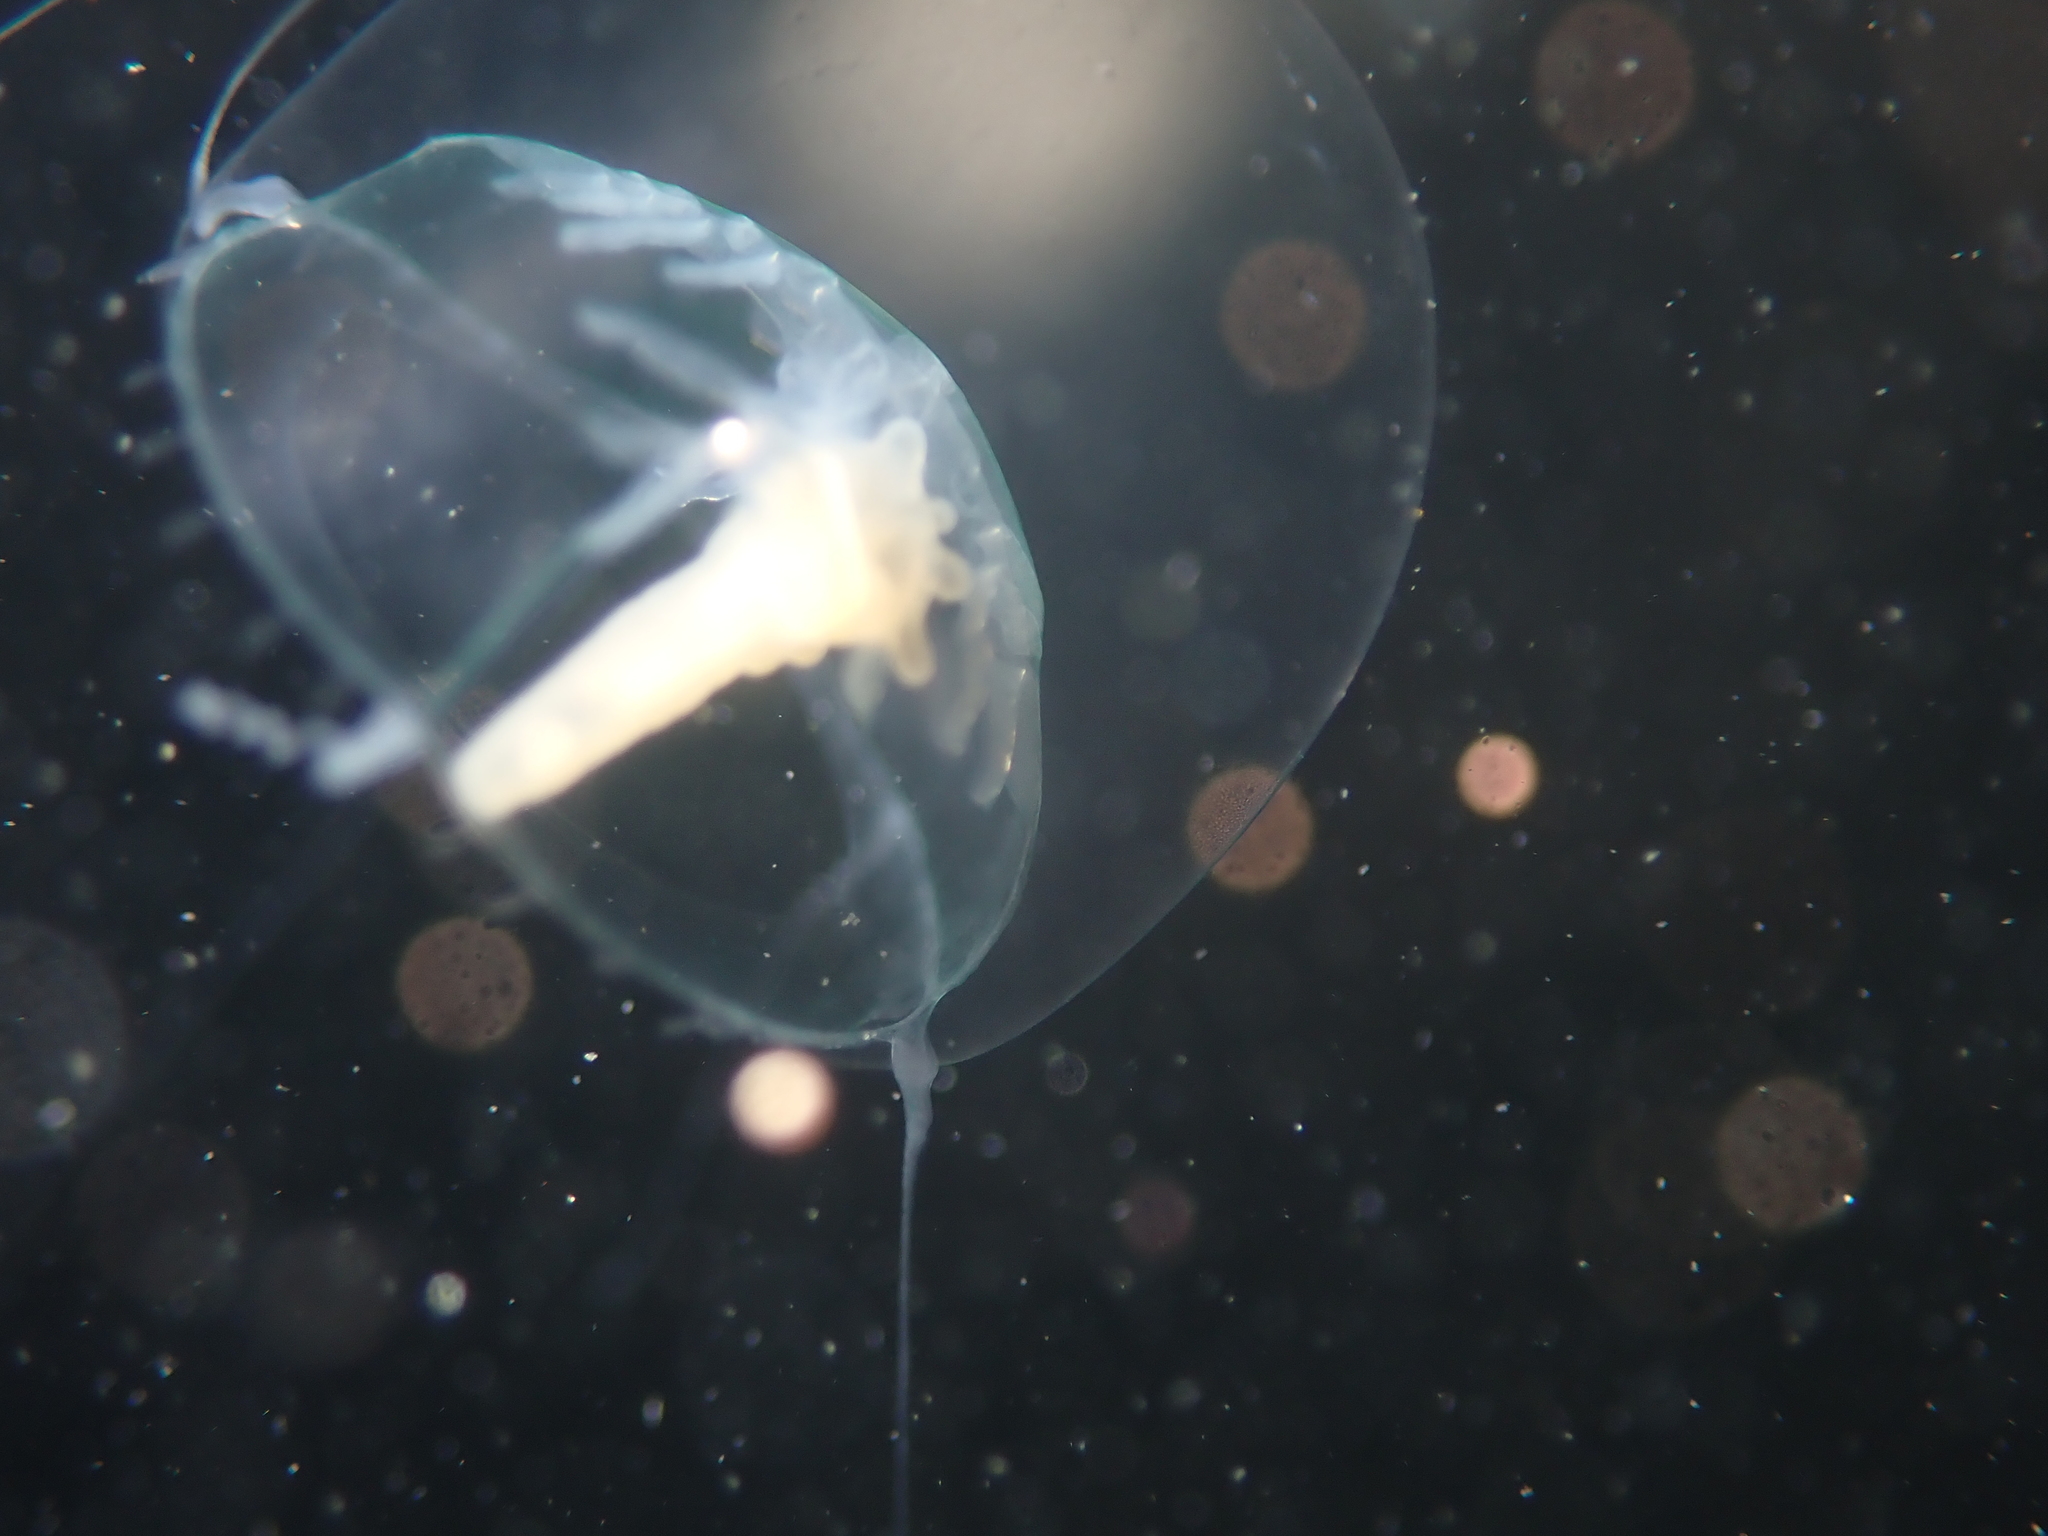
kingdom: Animalia
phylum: Cnidaria
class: Anthozoa
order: Actiniaria
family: Peachiidae
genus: Peachia
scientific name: Peachia neozealandica
